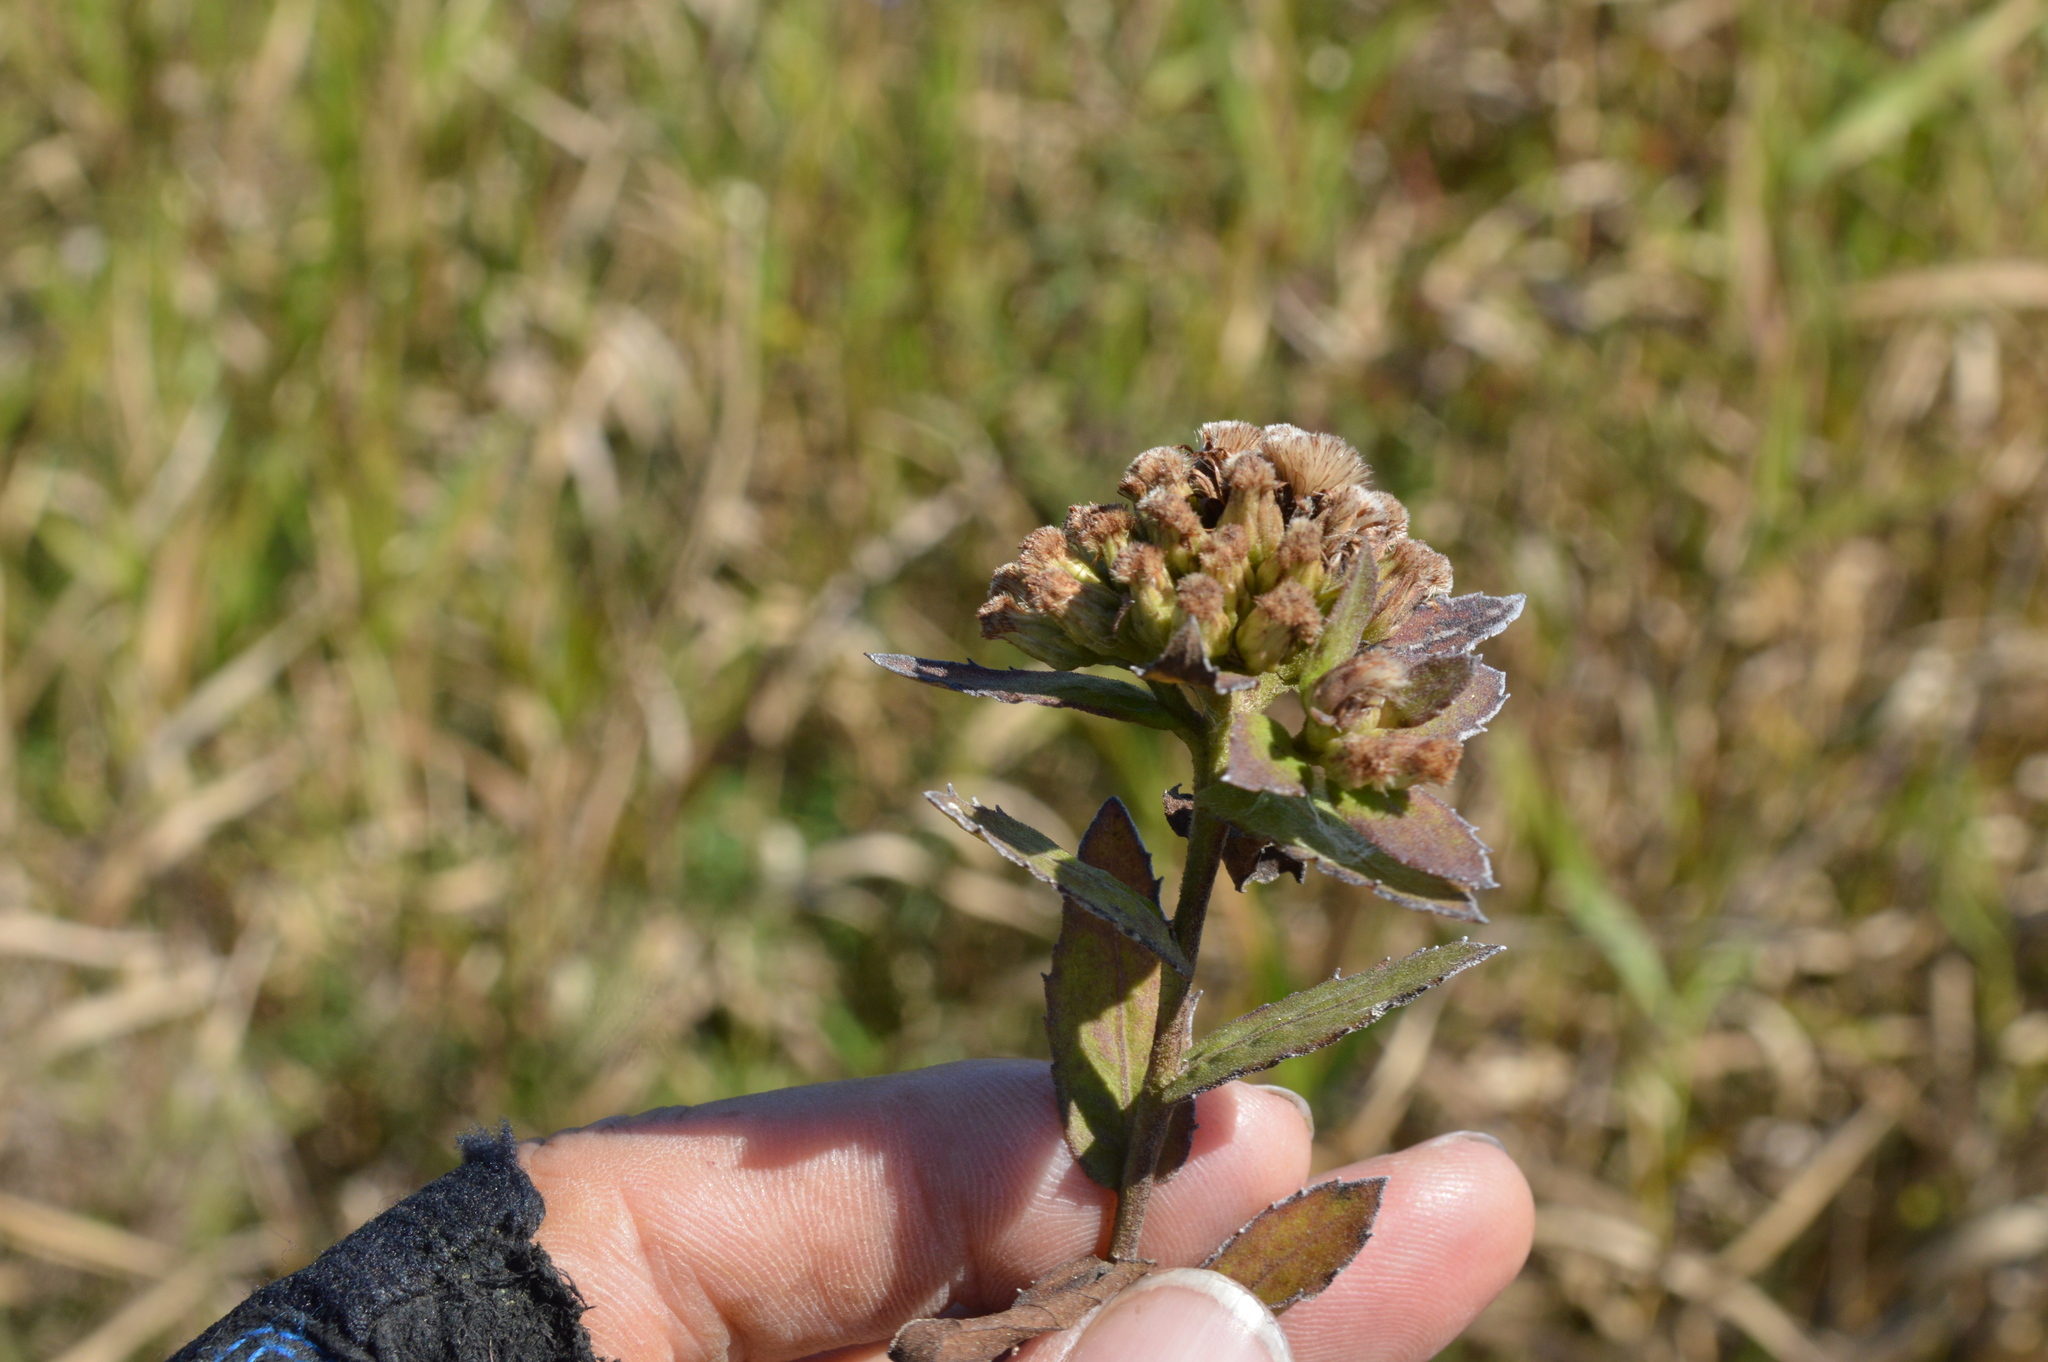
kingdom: Plantae
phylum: Tracheophyta
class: Magnoliopsida
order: Asterales
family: Asteraceae
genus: Pluchea
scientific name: Pluchea foetida
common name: Stinking camphorweed
